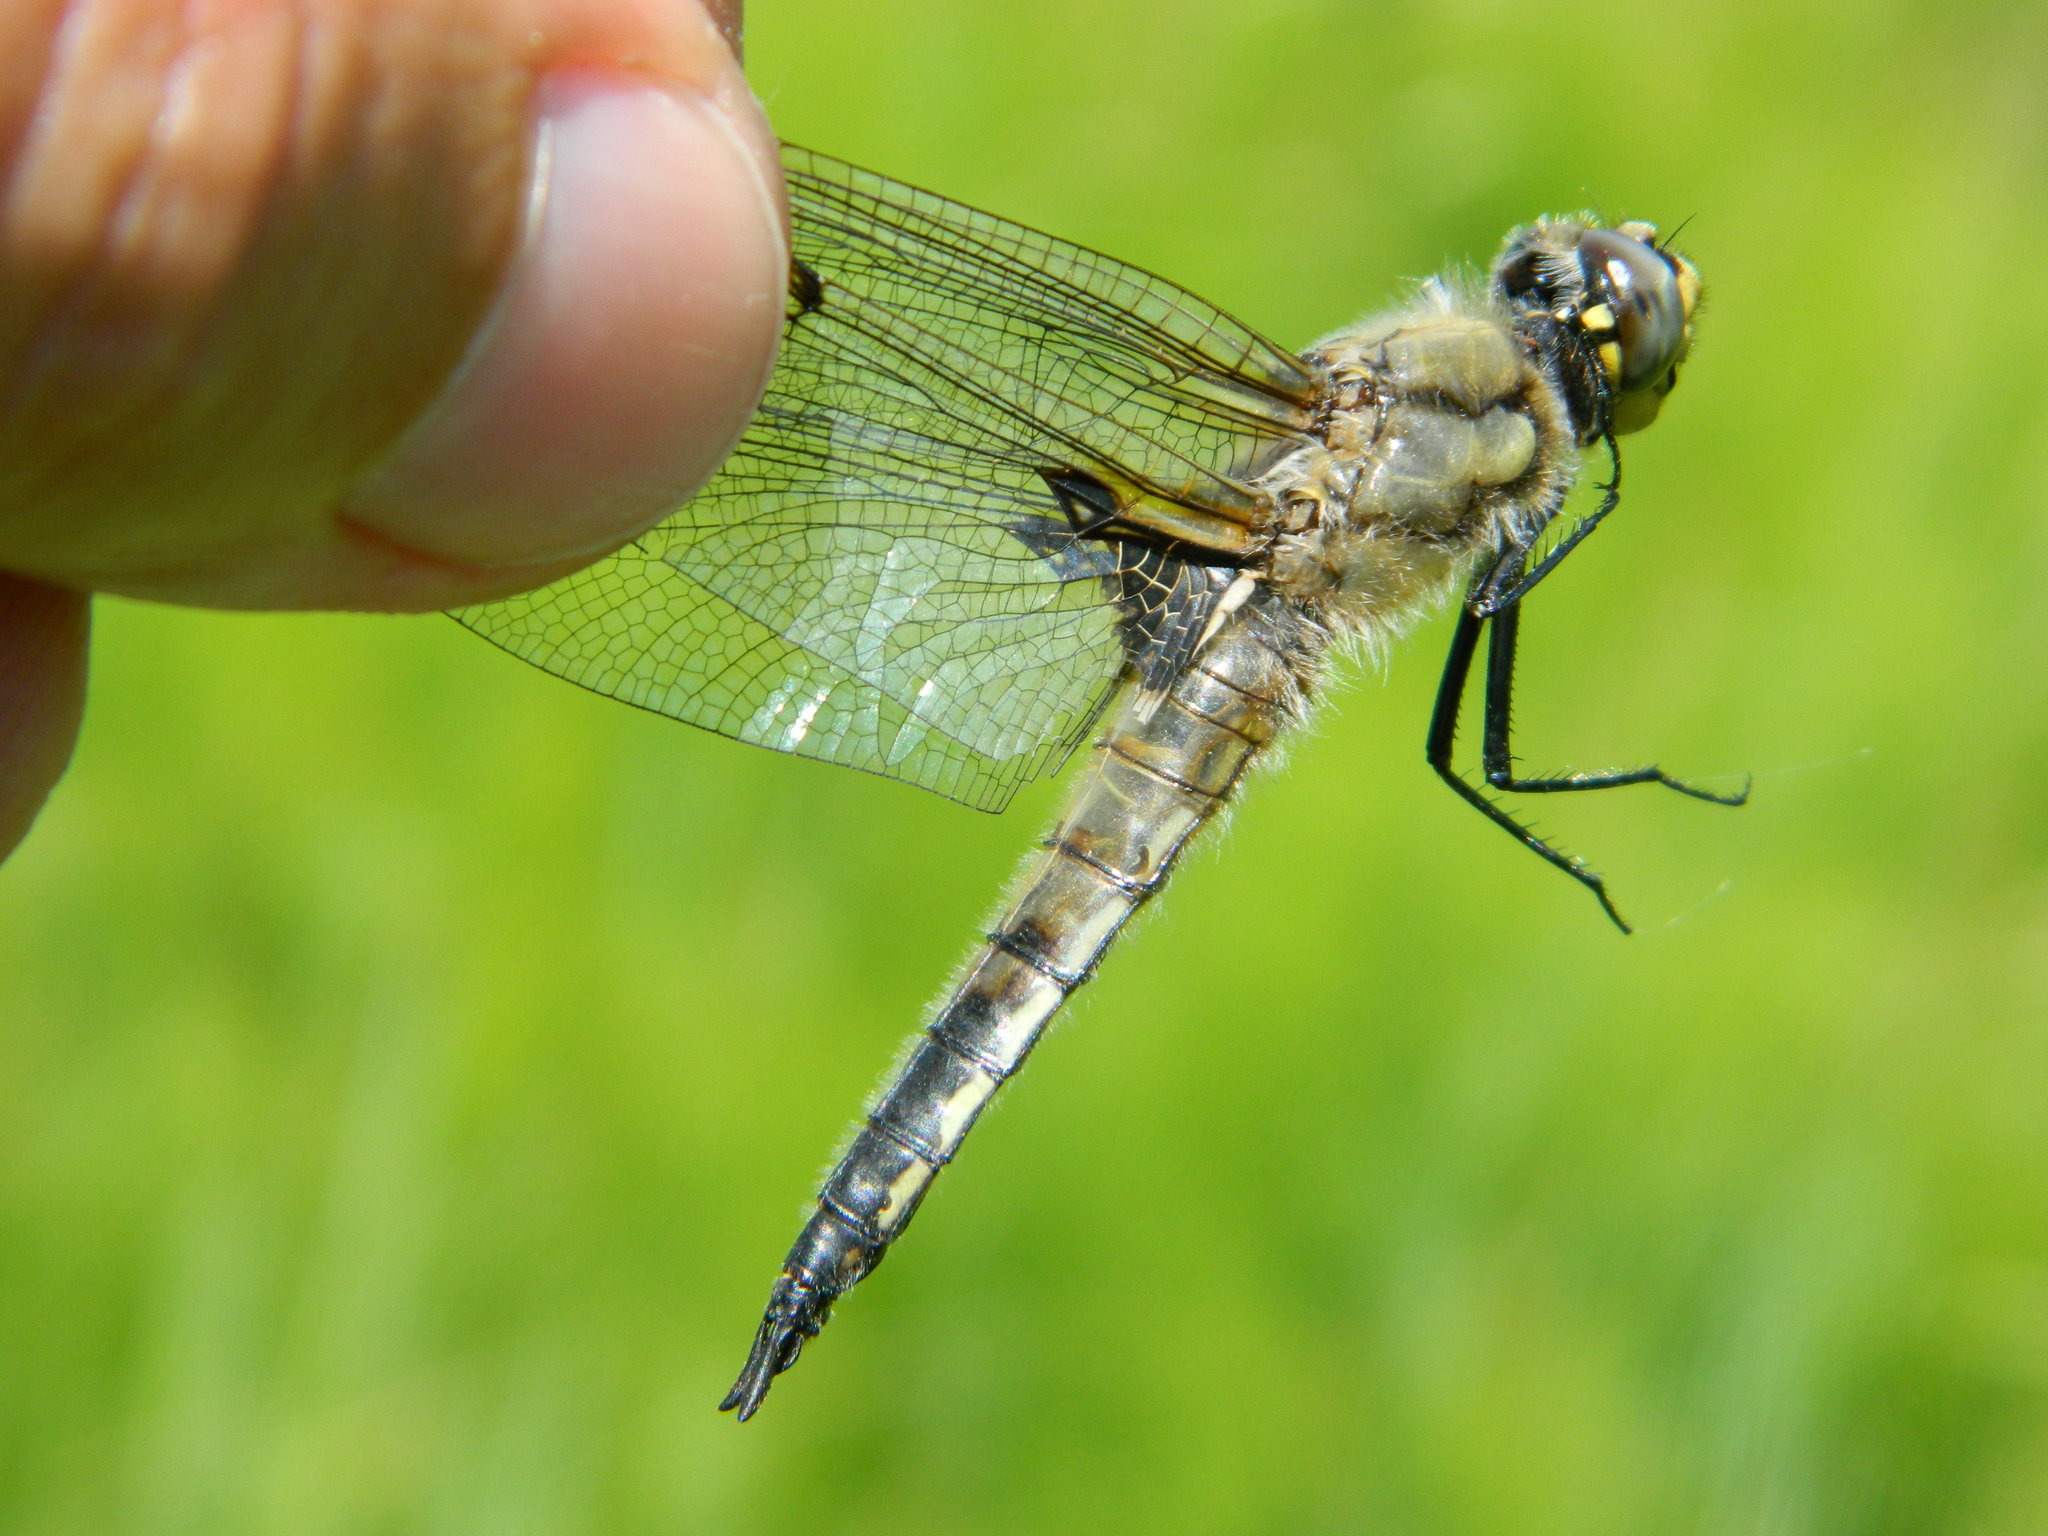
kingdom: Animalia
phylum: Arthropoda
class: Insecta
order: Odonata
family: Libellulidae
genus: Libellula
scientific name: Libellula quadrimaculata
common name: Four-spotted chaser
